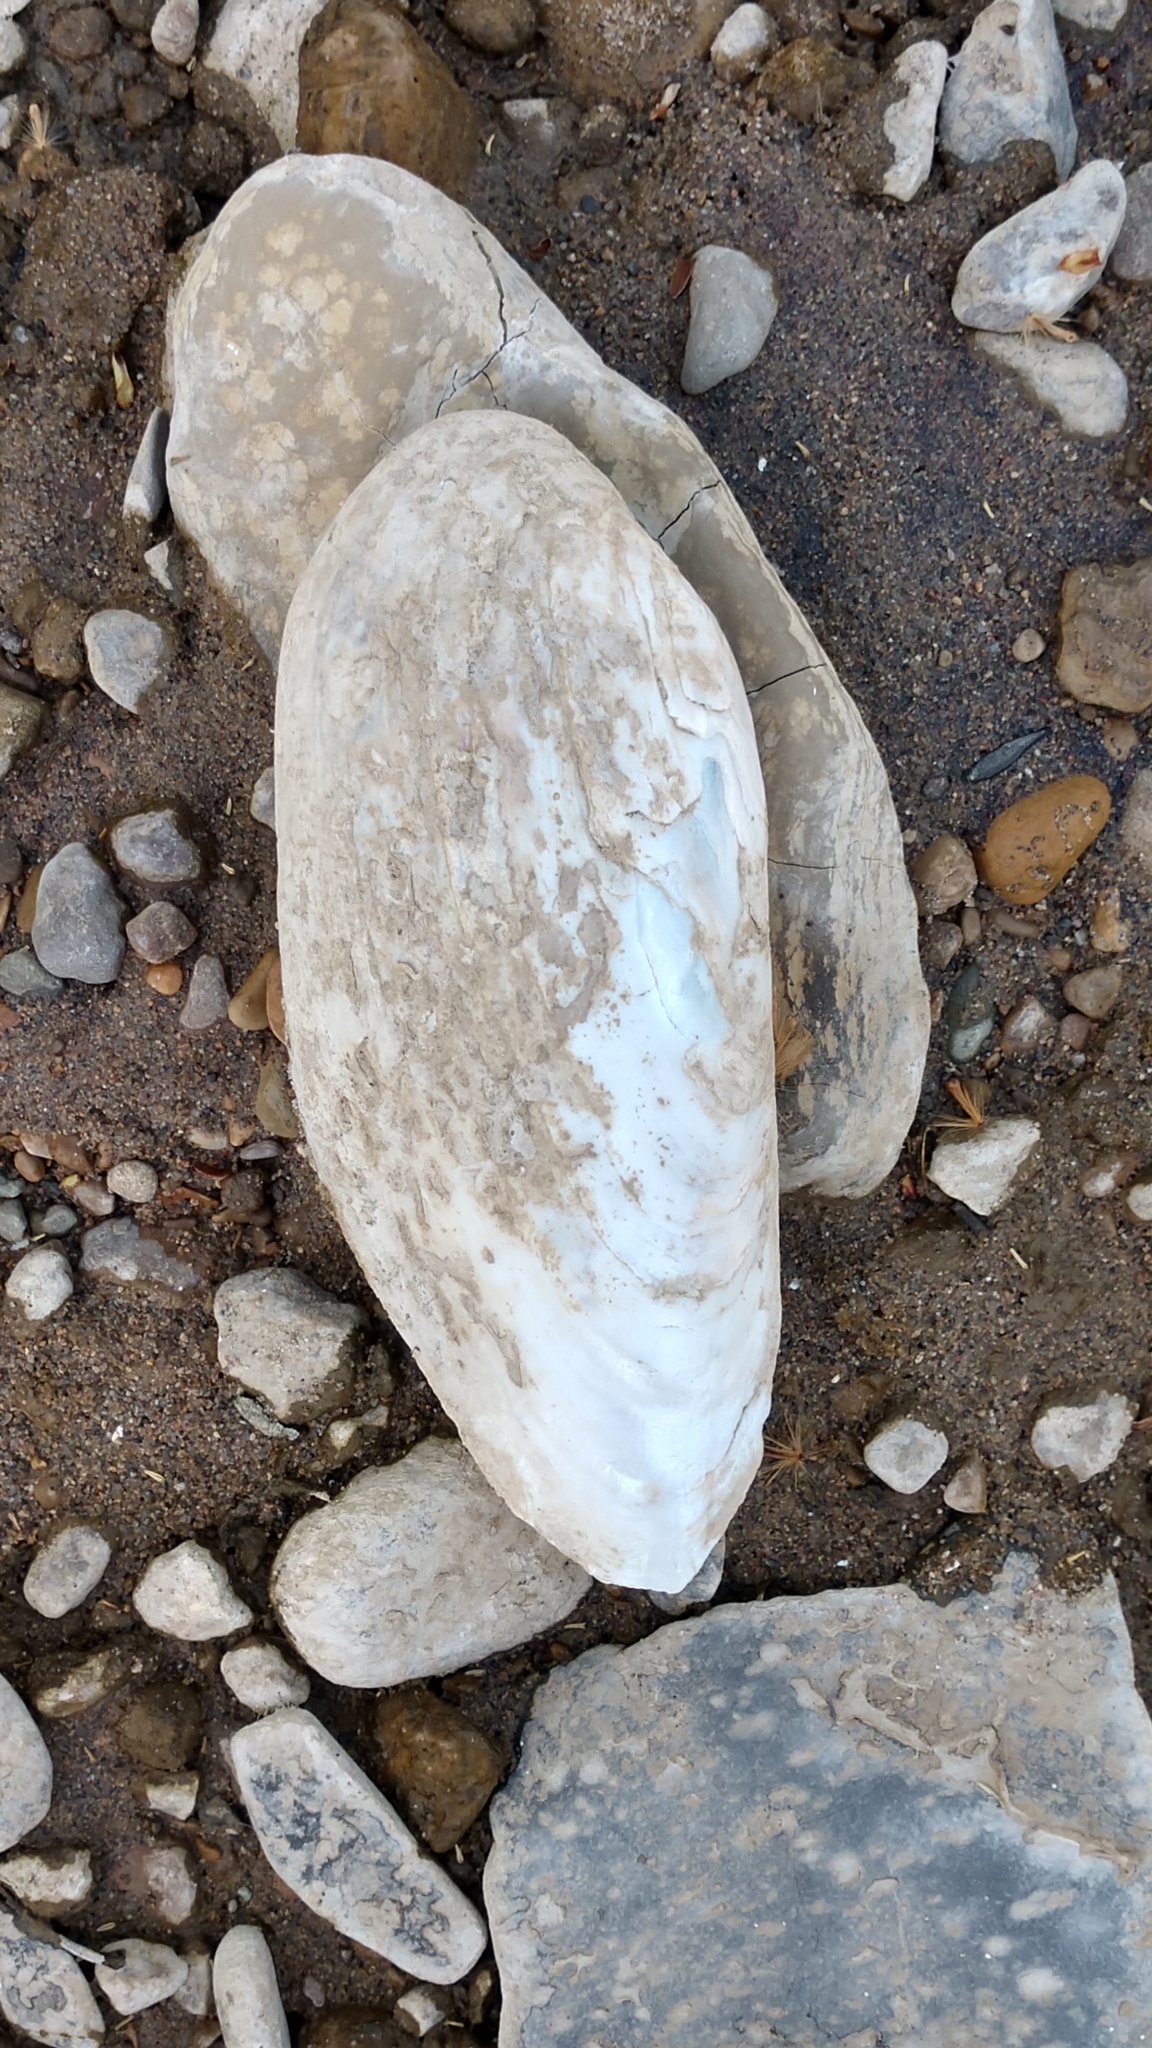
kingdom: Animalia
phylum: Mollusca
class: Bivalvia
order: Unionida
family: Unionidae
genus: Ligumia
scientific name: Ligumia recta
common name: Black sandshell
